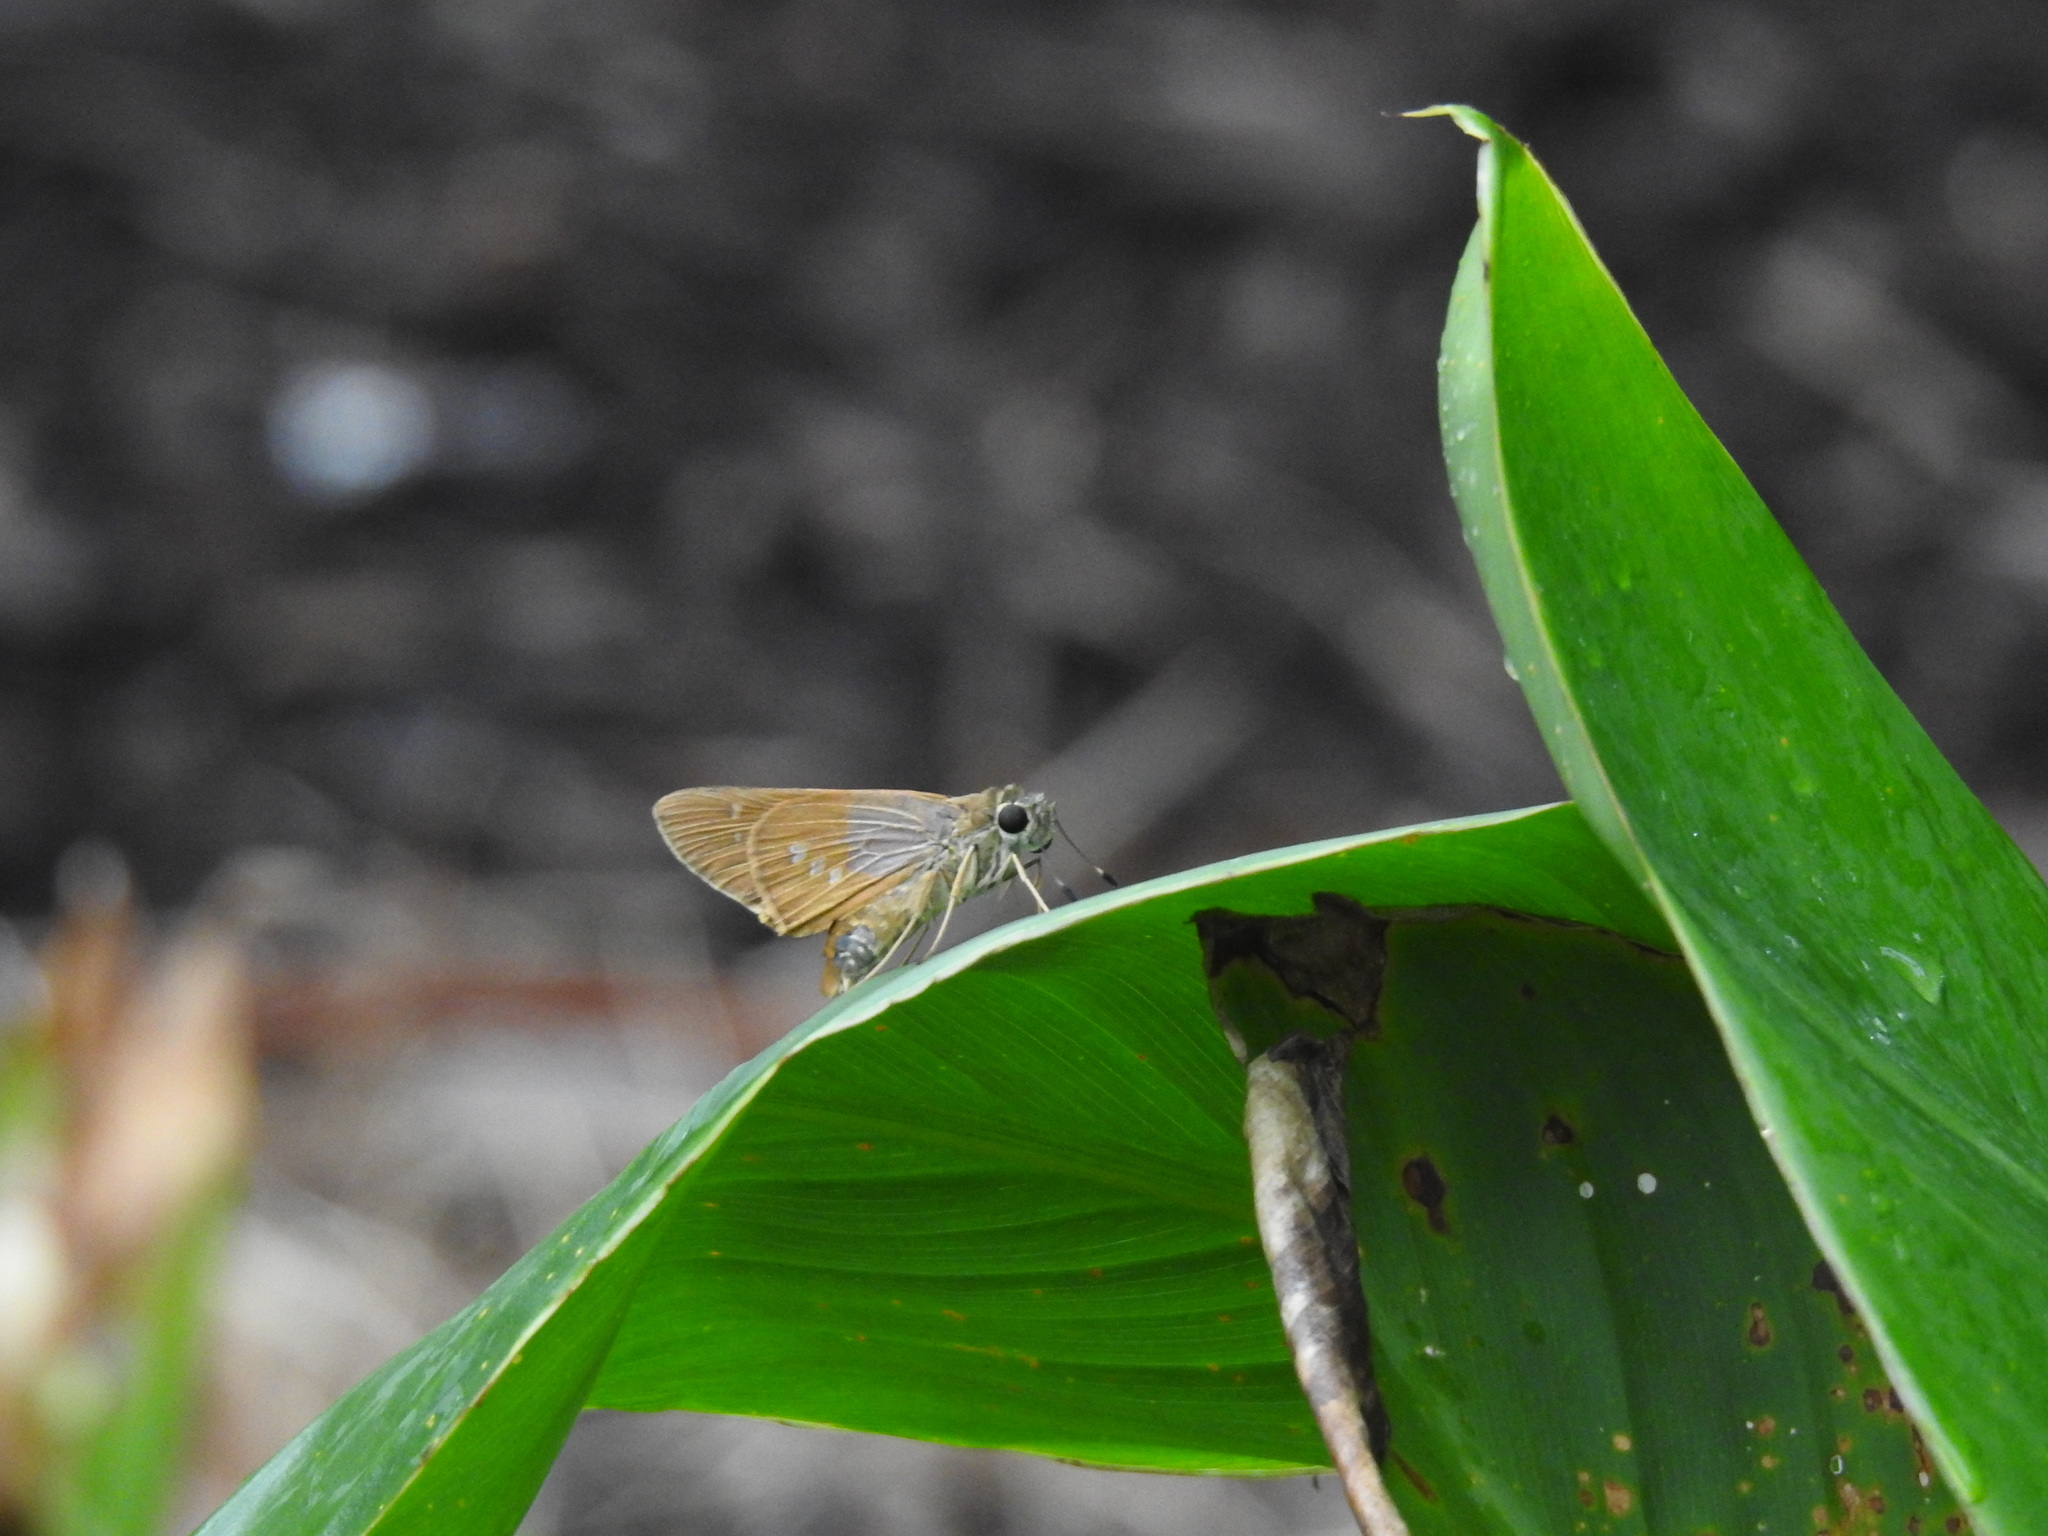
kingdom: Animalia
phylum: Arthropoda
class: Insecta
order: Lepidoptera
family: Hesperiidae
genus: Calpodes
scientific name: Calpodes ethlius
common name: Brazilian skipper
